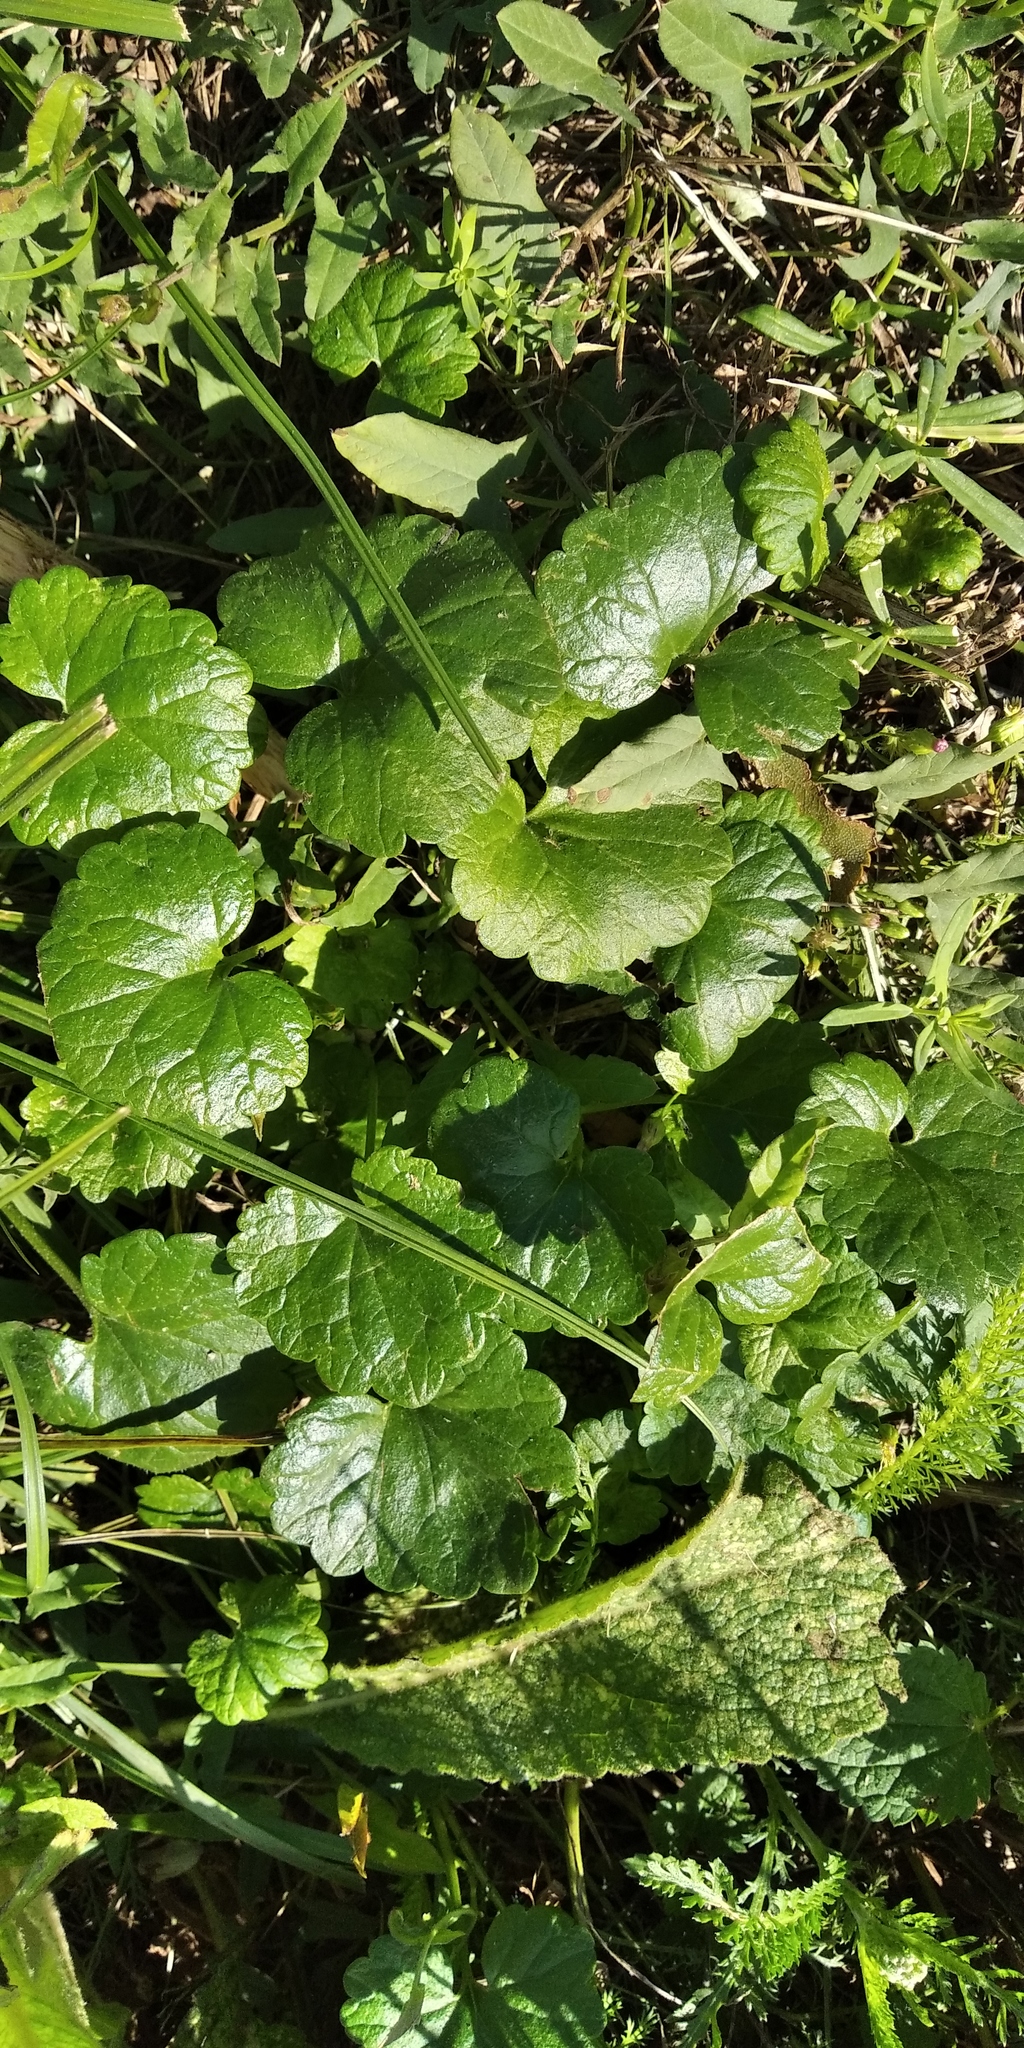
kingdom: Plantae
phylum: Tracheophyta
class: Magnoliopsida
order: Lamiales
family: Lamiaceae
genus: Glechoma
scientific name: Glechoma hederacea
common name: Ground ivy
